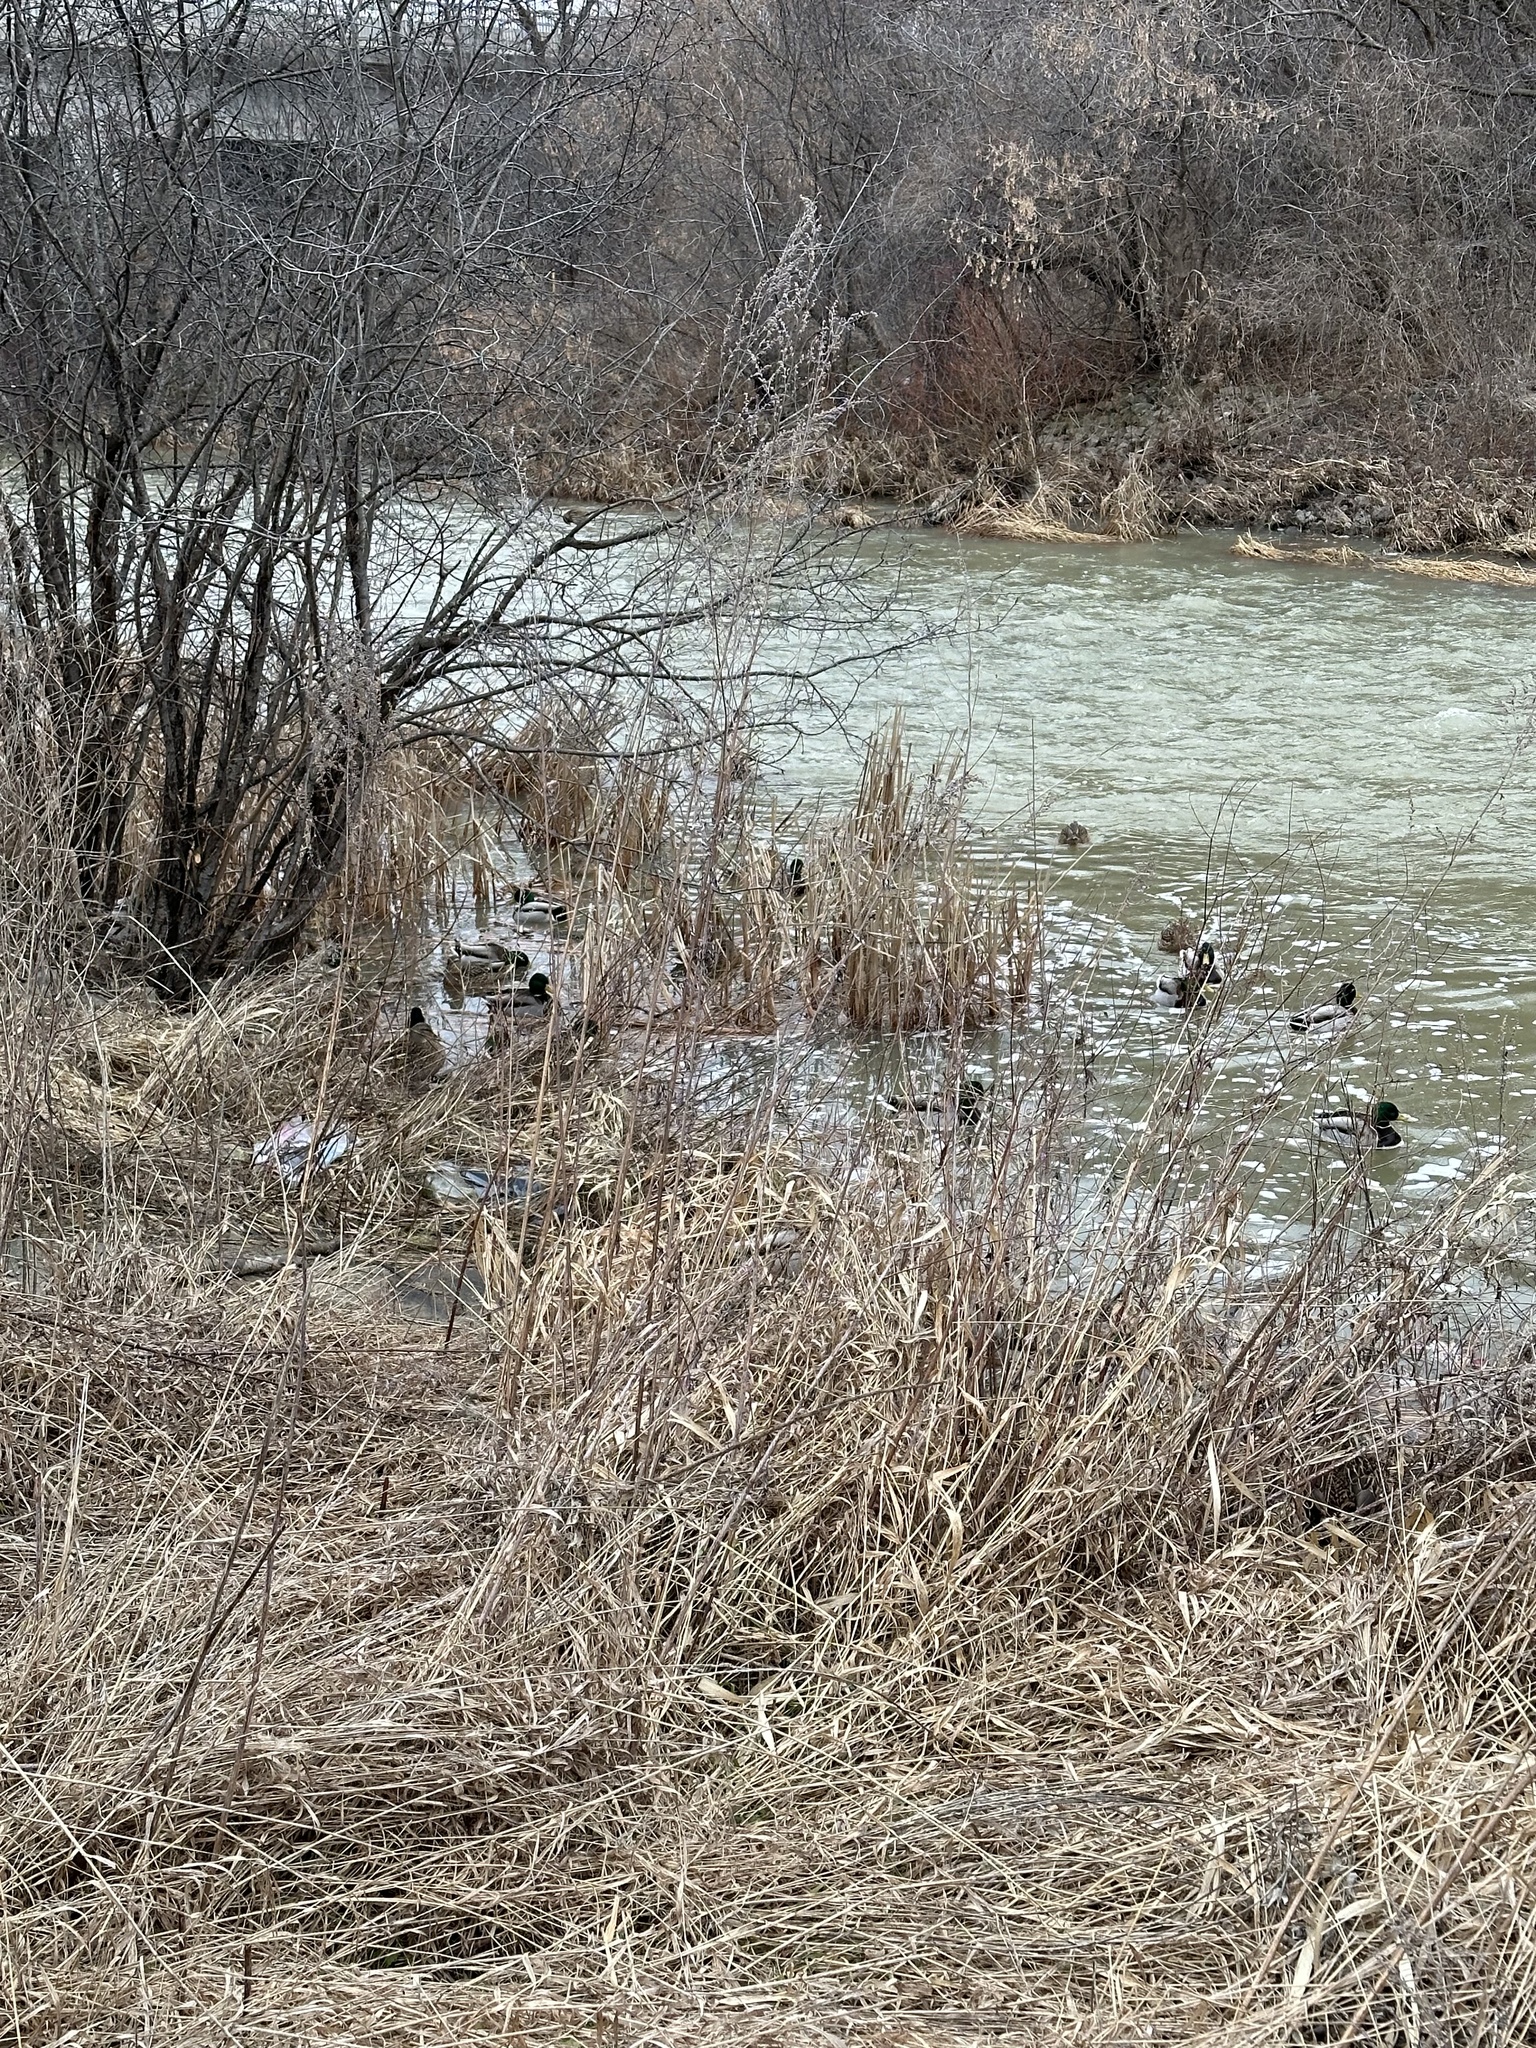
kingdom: Animalia
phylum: Chordata
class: Aves
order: Anseriformes
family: Anatidae
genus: Anas
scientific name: Anas platyrhynchos
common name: Mallard
